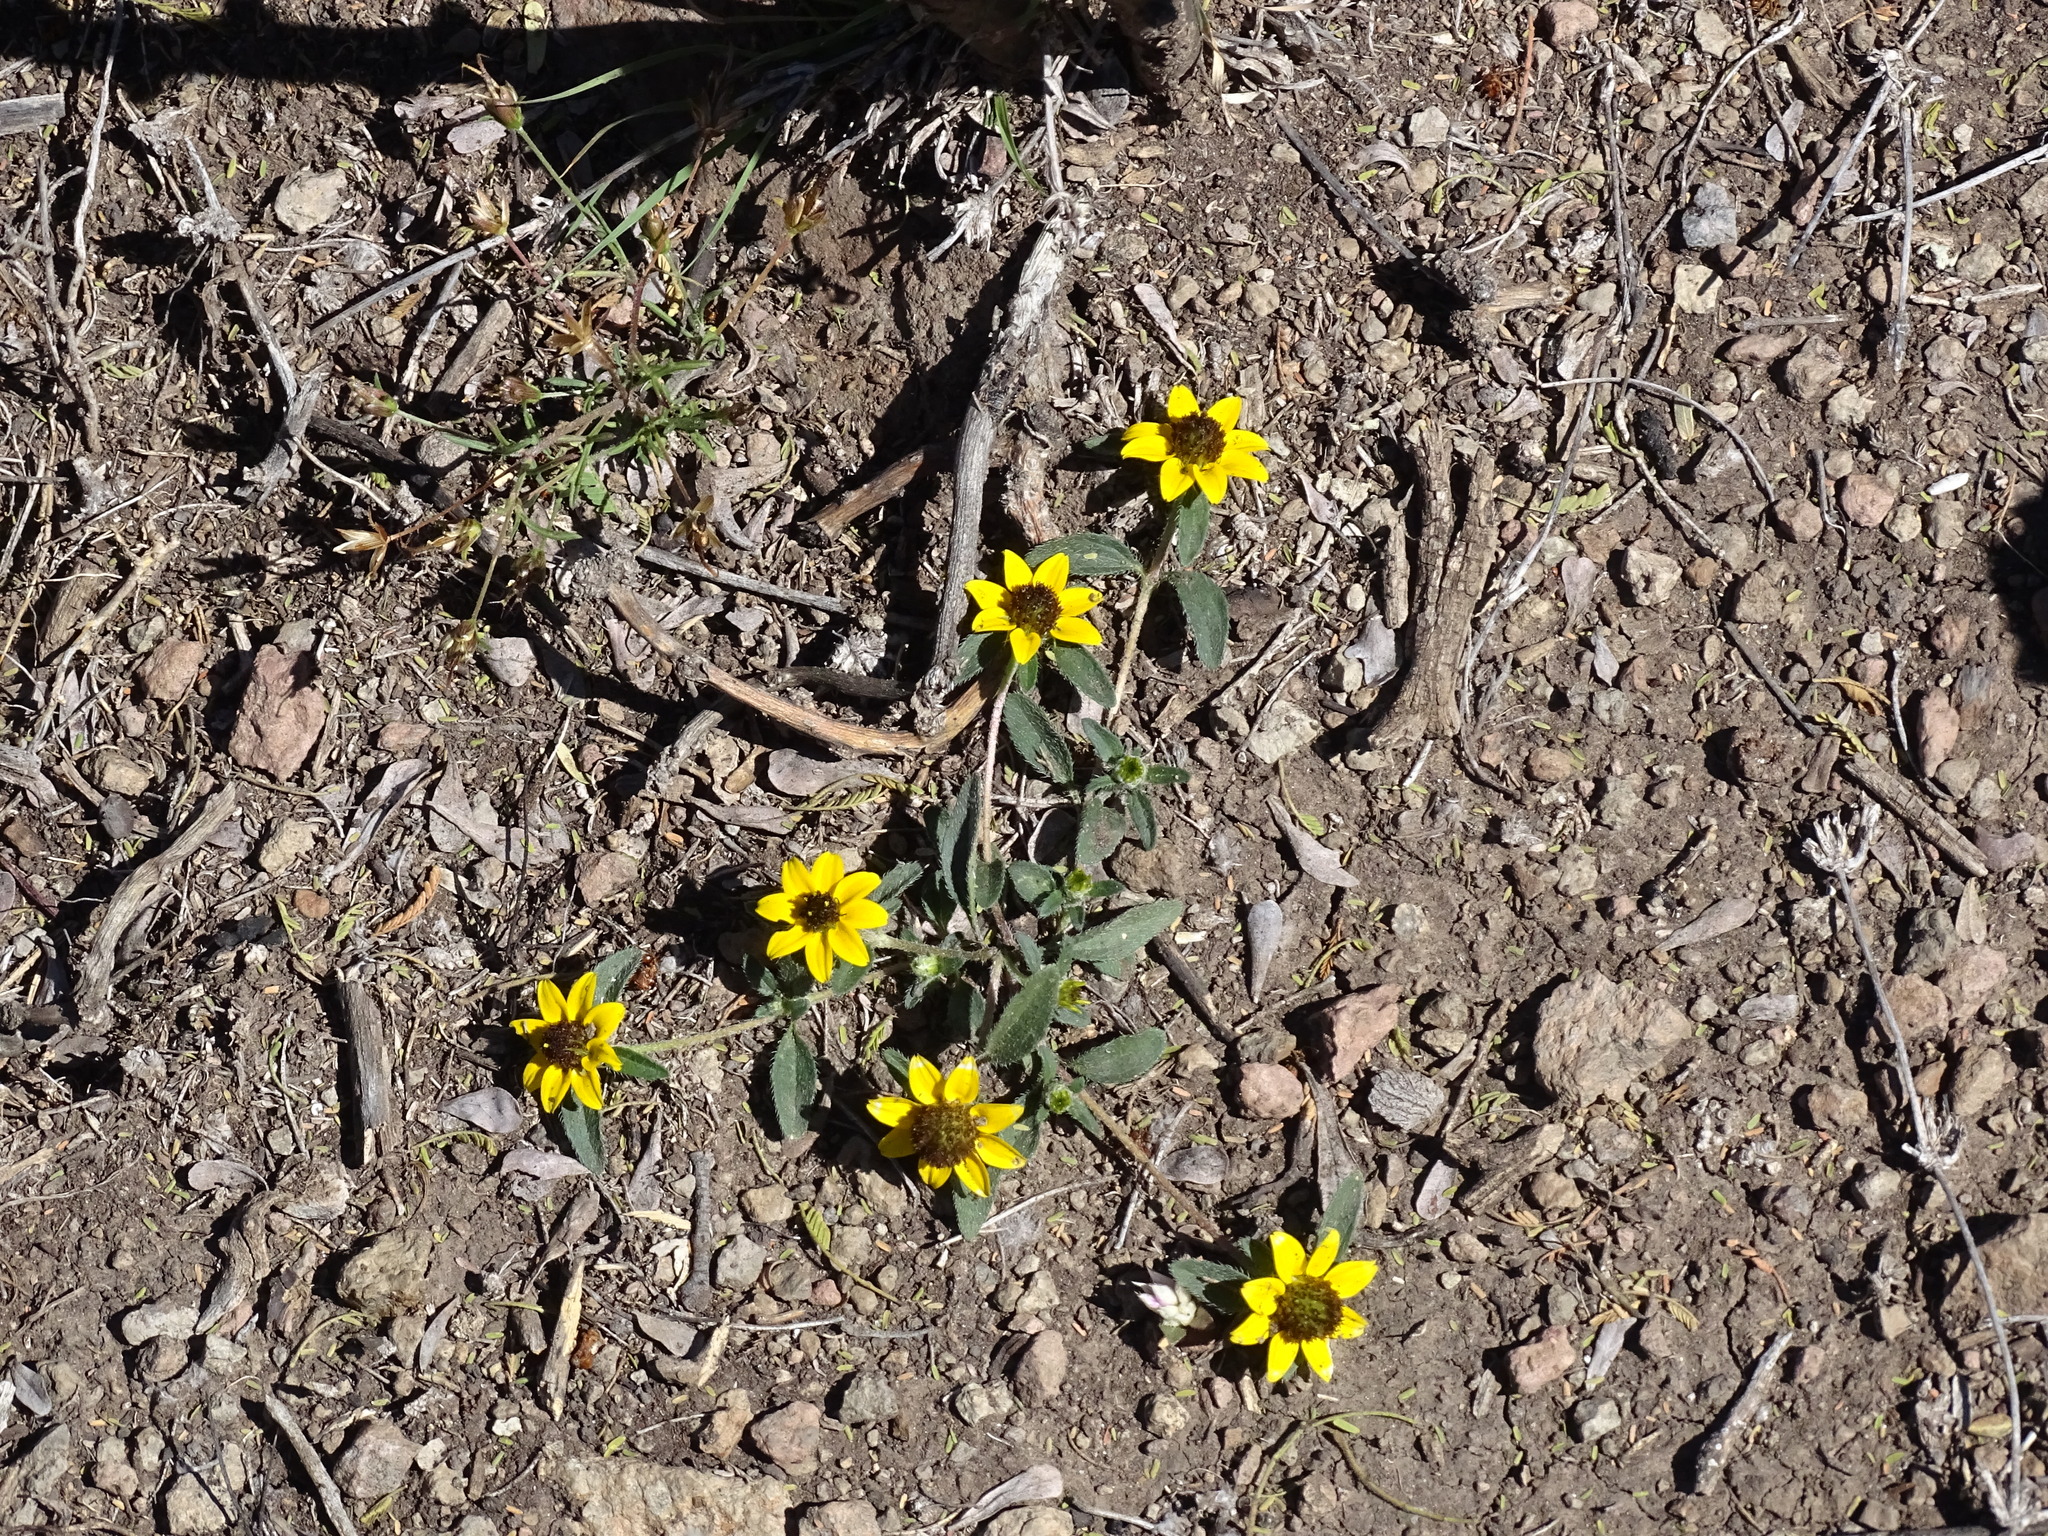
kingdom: Plantae
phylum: Tracheophyta
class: Magnoliopsida
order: Asterales
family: Asteraceae
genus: Sanvitalia
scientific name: Sanvitalia procumbens
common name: Mexican creeping zinnia
